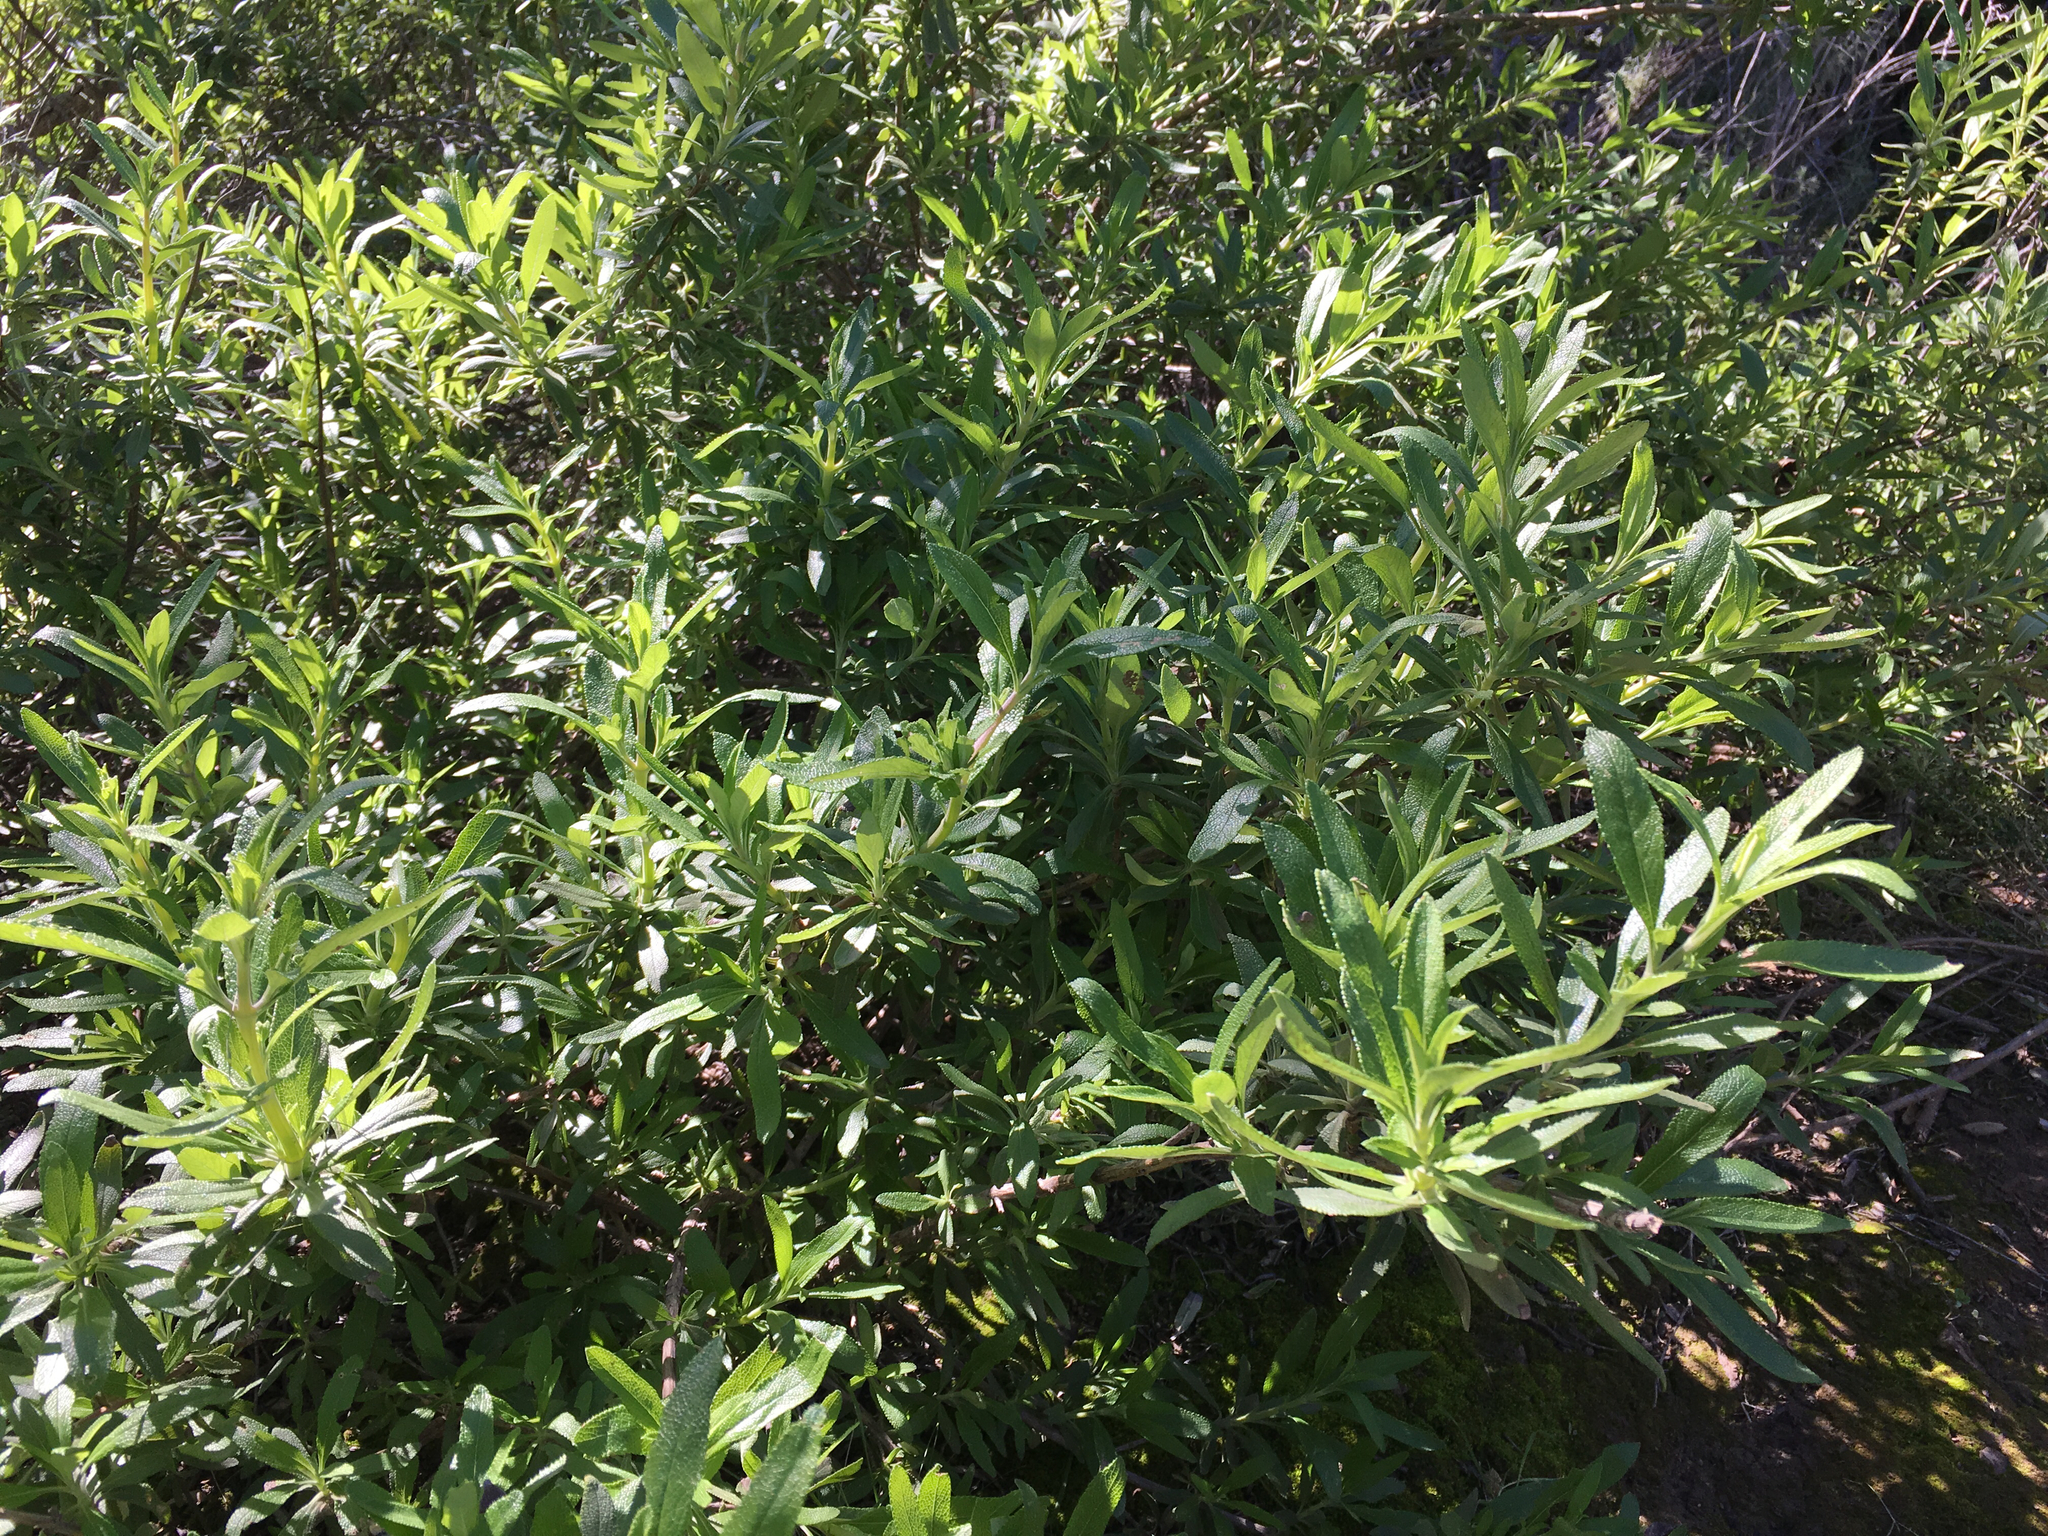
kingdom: Plantae
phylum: Tracheophyta
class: Magnoliopsida
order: Lamiales
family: Lamiaceae
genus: Salvia
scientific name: Salvia mellifera
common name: Black sage
